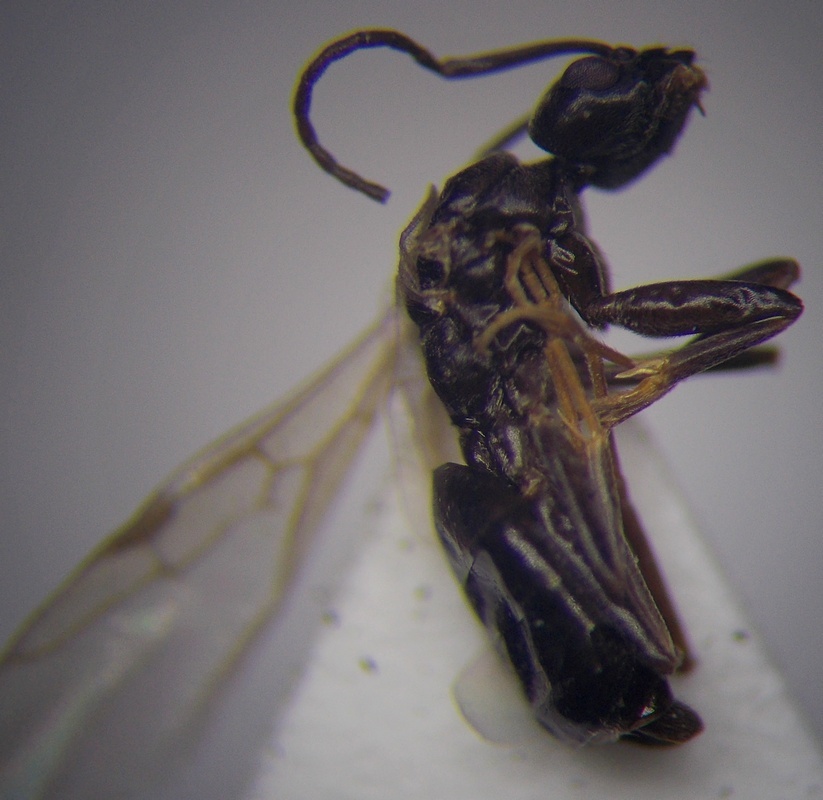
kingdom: Animalia
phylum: Arthropoda
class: Insecta
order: Hymenoptera
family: Formicidae
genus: Tapinoma
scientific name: Tapinoma erraticum
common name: Erratic ant
